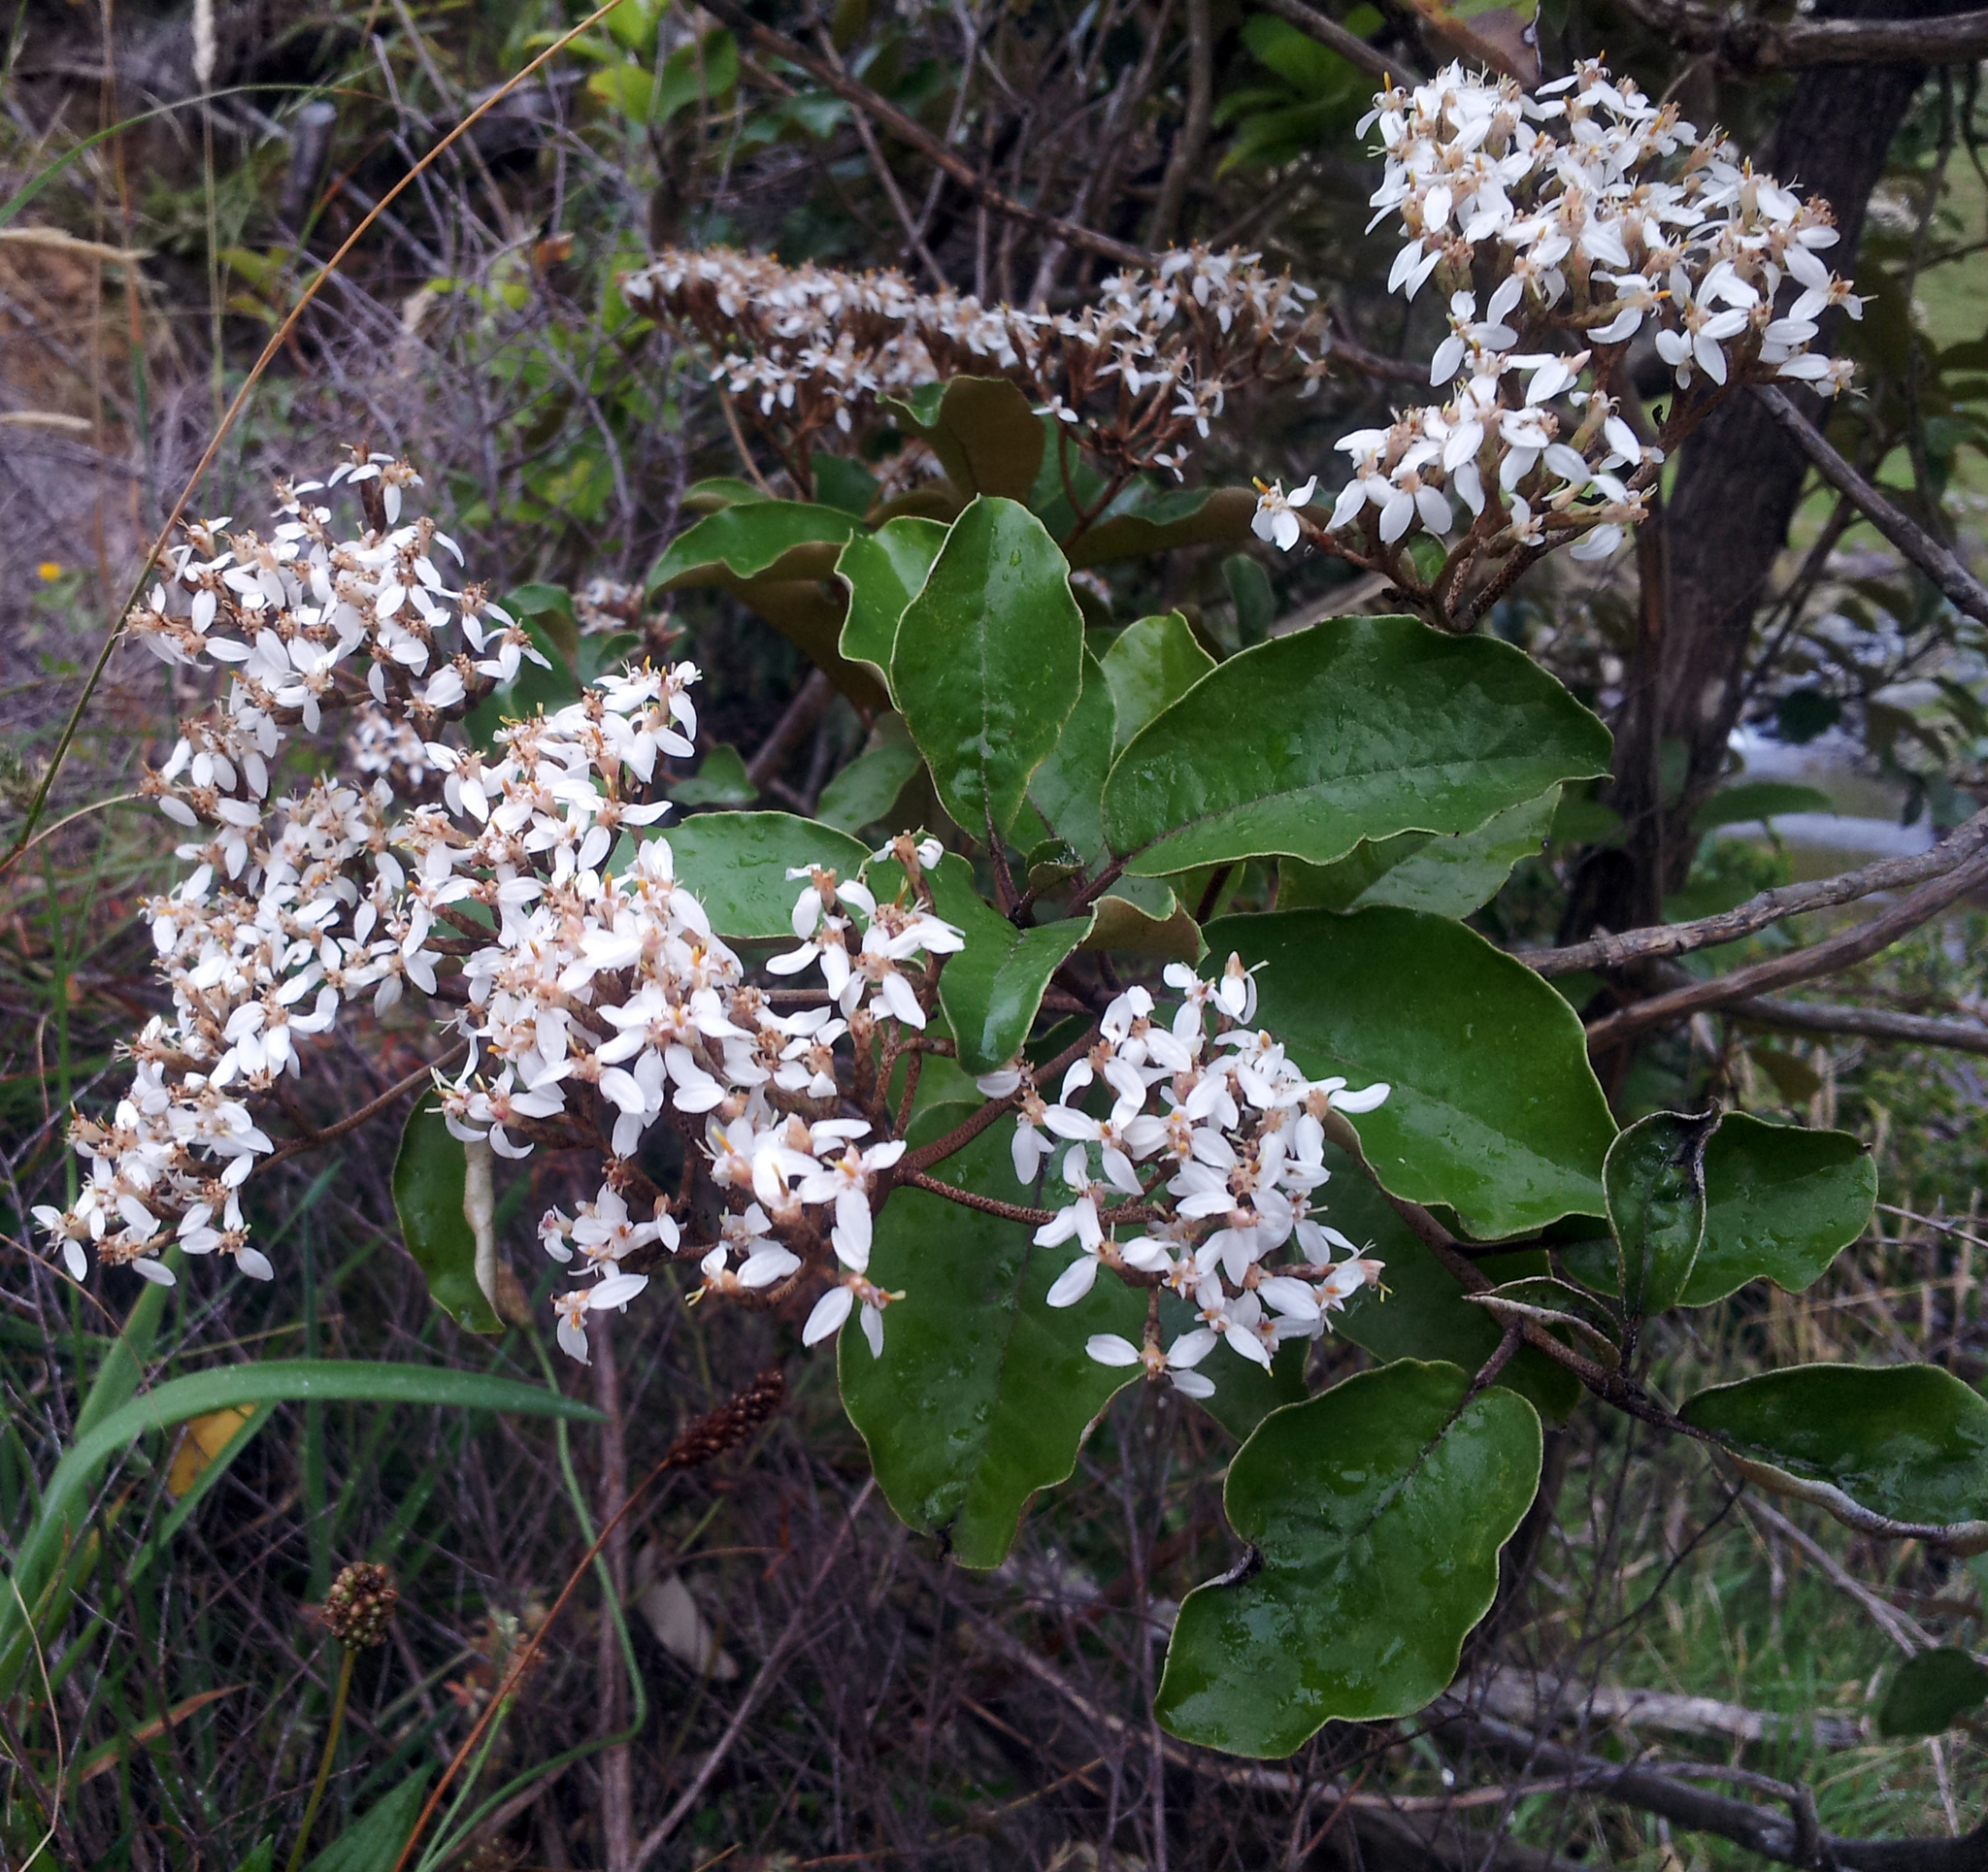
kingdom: Plantae
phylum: Tracheophyta
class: Magnoliopsida
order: Asterales
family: Asteraceae
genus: Olearia
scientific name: Olearia furfuracea
